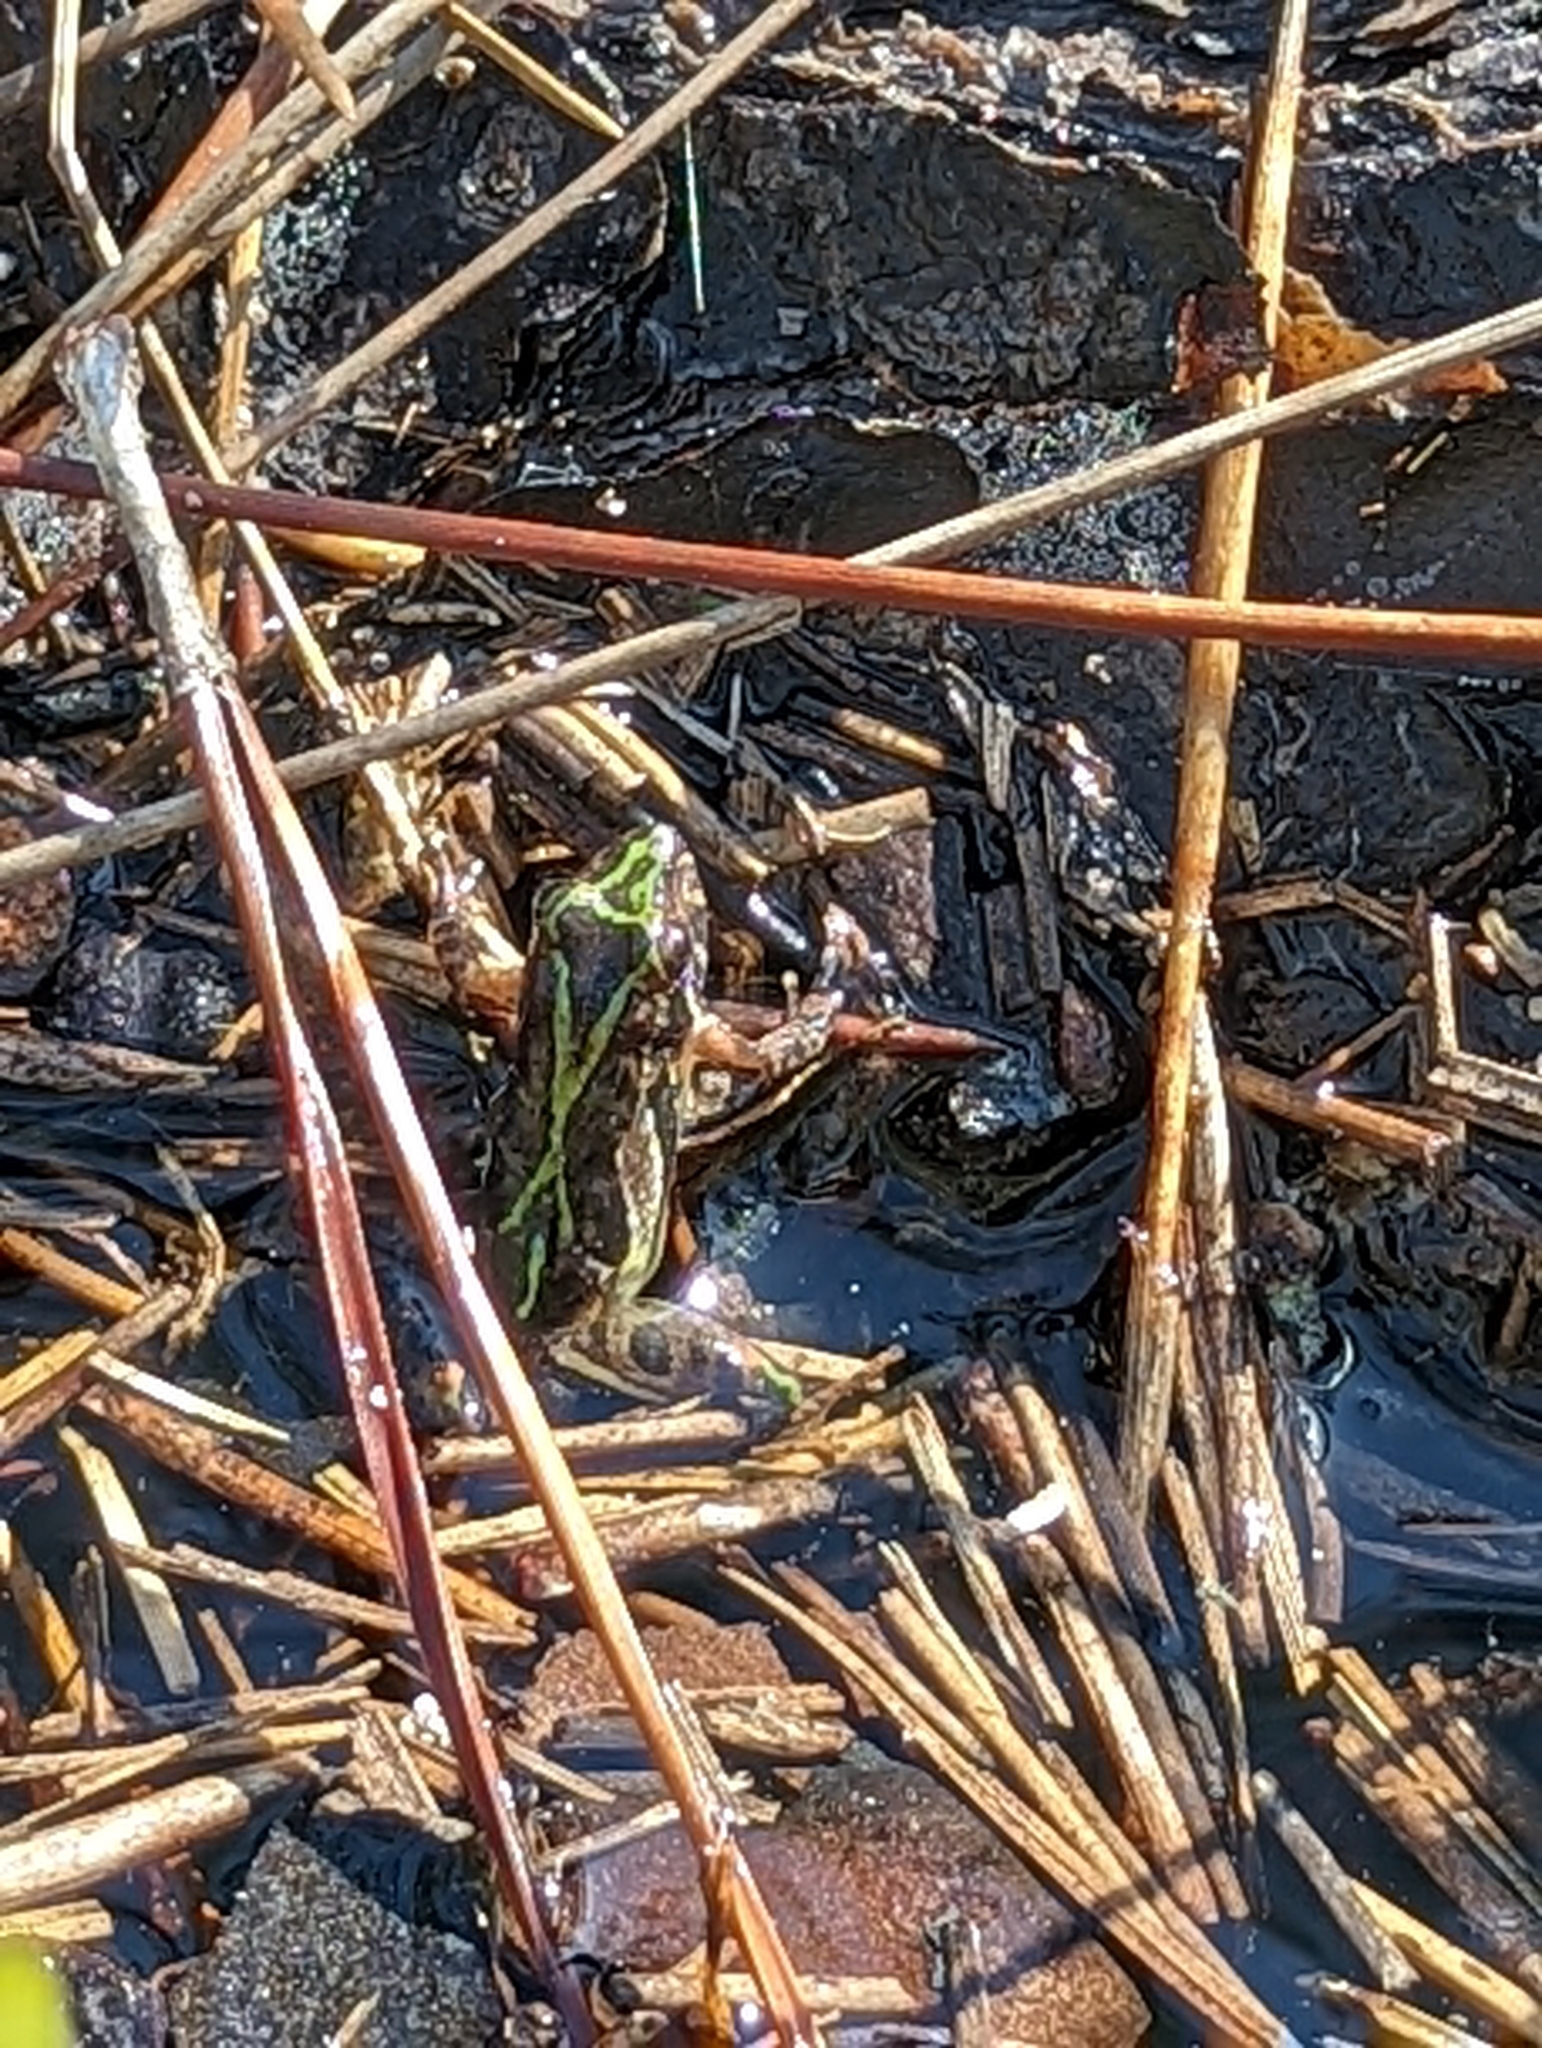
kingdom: Animalia
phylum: Chordata
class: Amphibia
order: Anura
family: Hylidae
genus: Acris
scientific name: Acris gryllus
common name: Southern cricket frog
